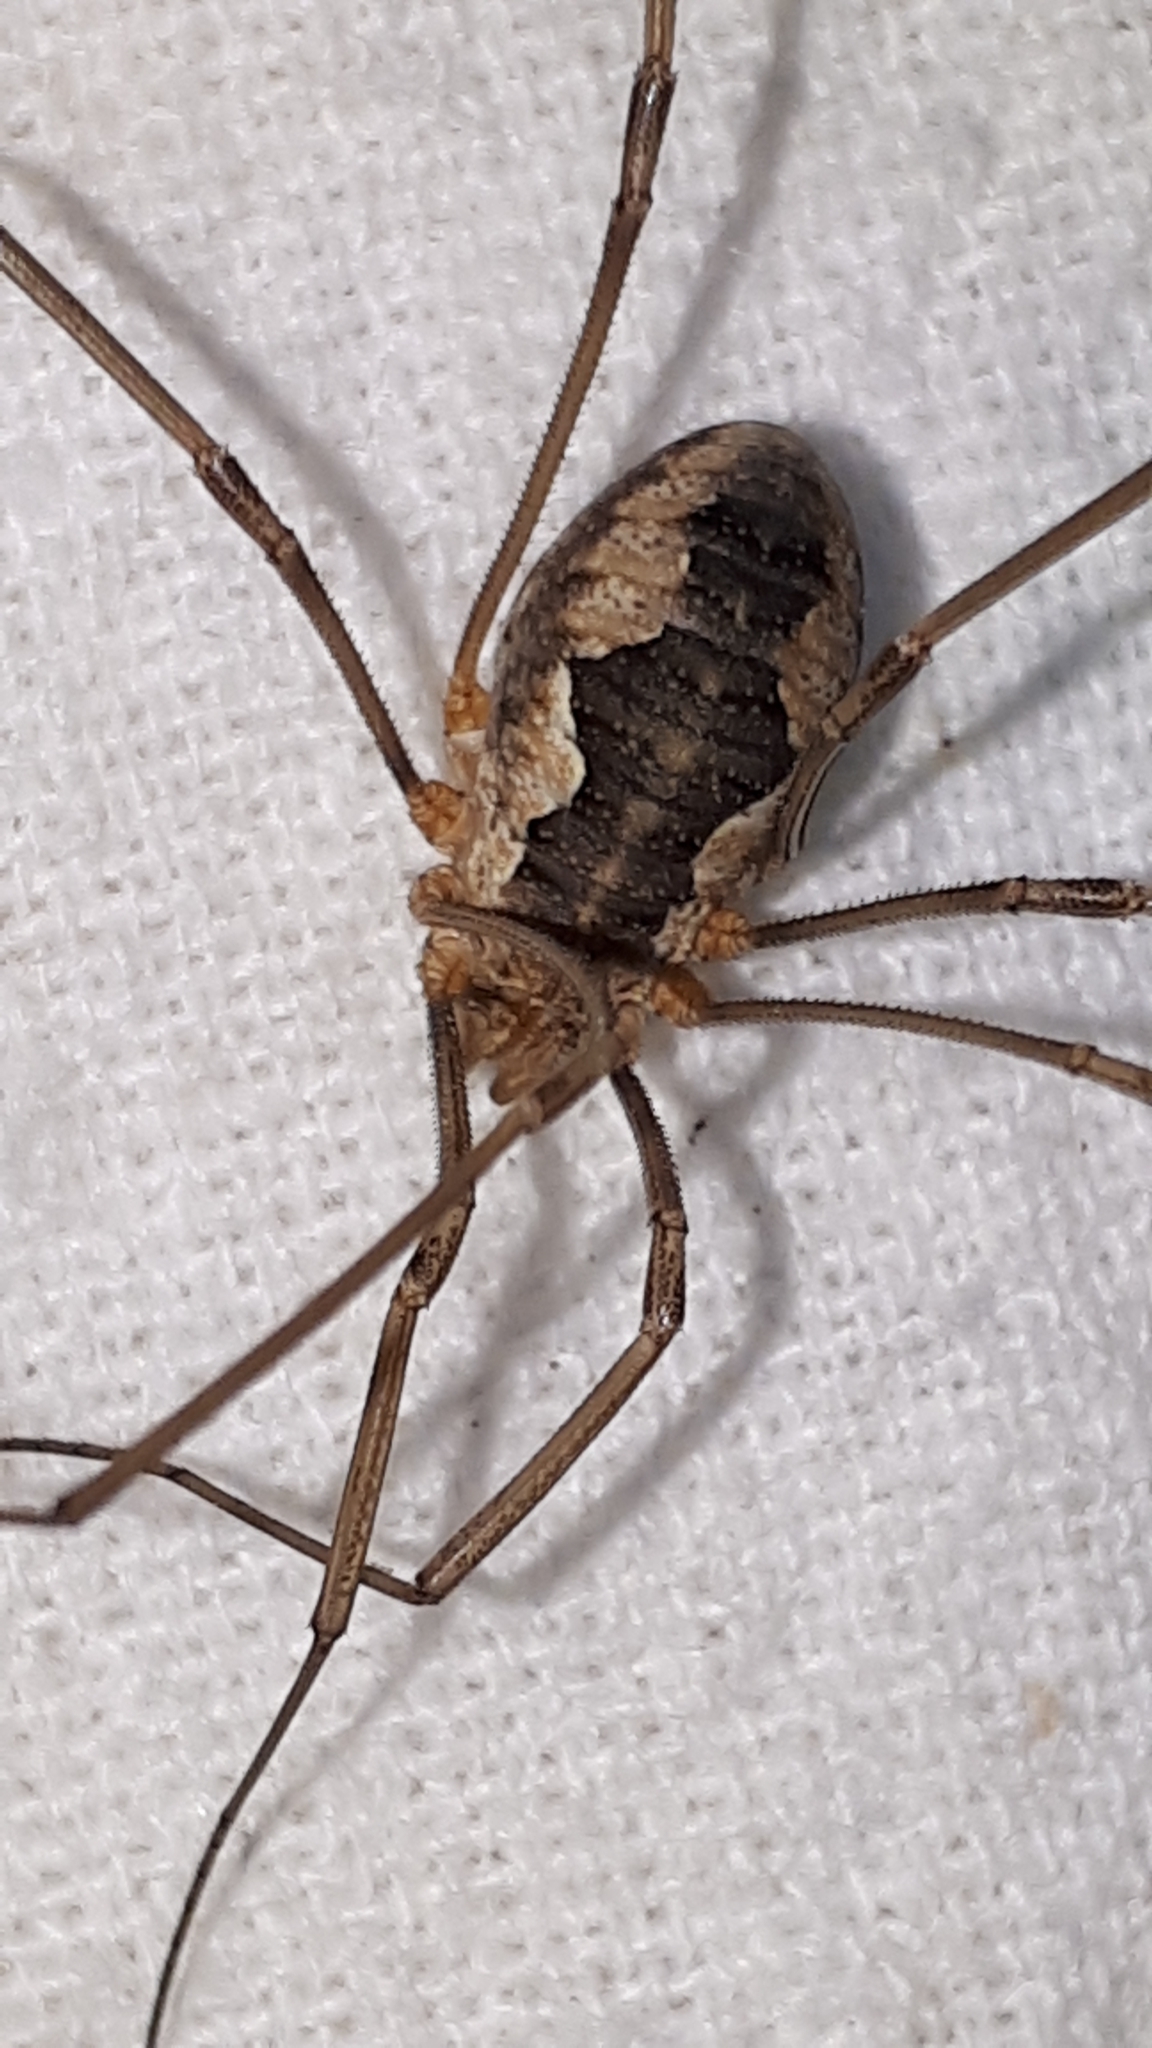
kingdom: Animalia
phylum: Arthropoda
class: Arachnida
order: Opiliones
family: Phalangiidae
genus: Phalangium
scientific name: Phalangium opilio
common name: Daddy longleg
